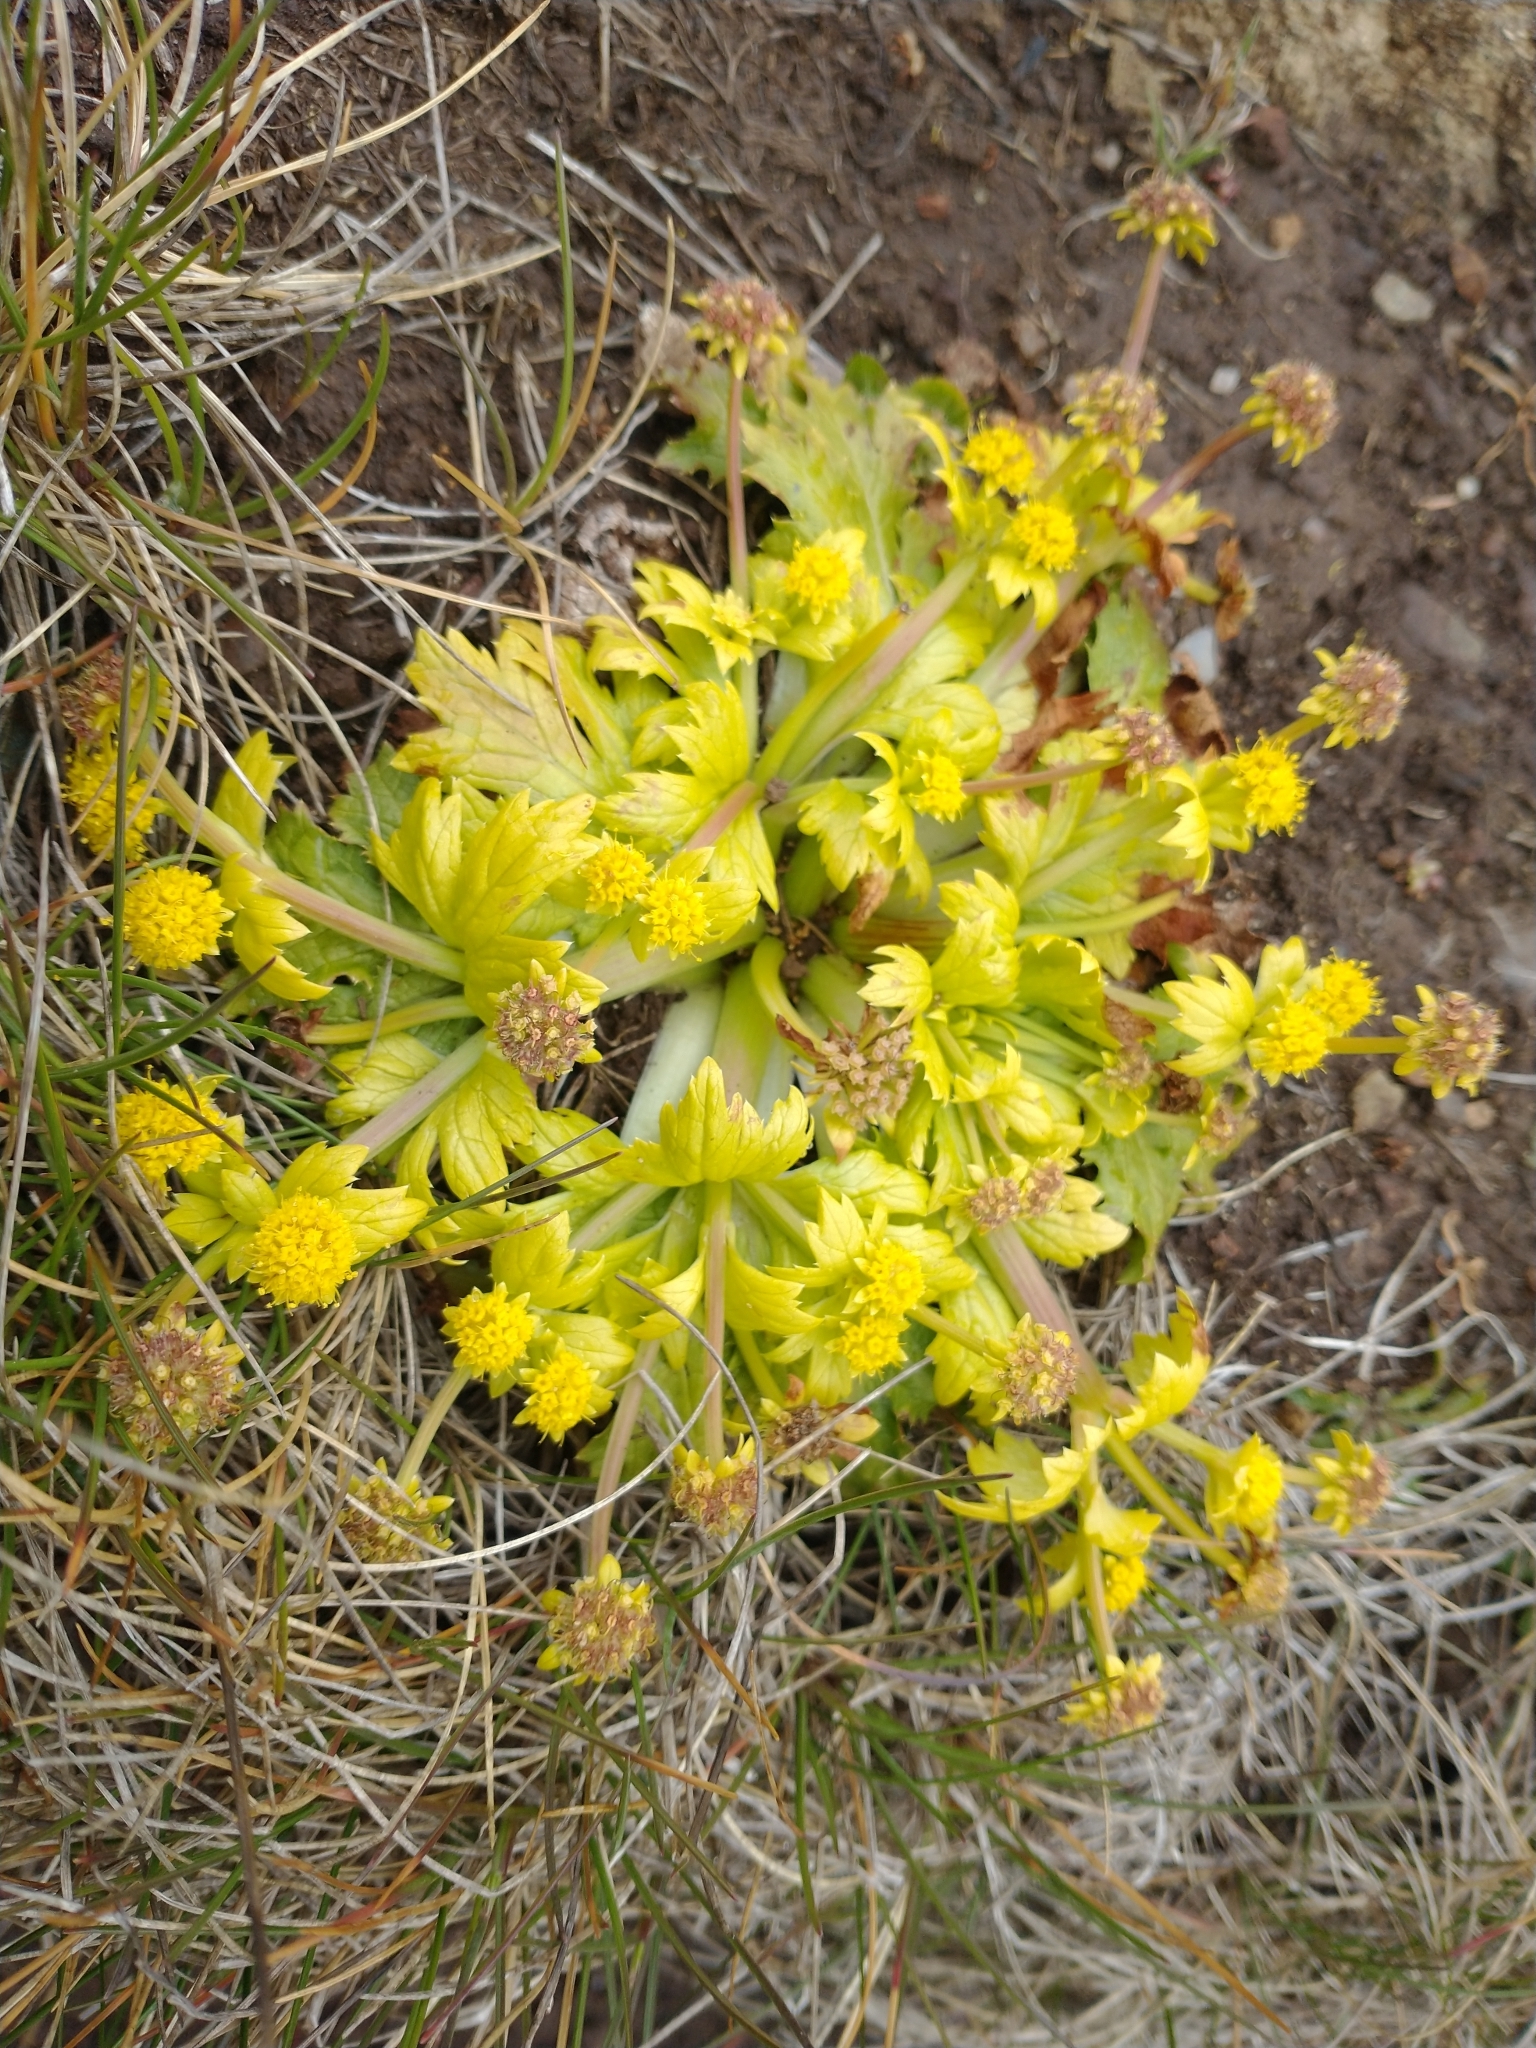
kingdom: Plantae
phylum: Tracheophyta
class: Magnoliopsida
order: Apiales
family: Apiaceae
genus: Sanicula
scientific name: Sanicula arctopoides
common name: Footsteps-of-spring
